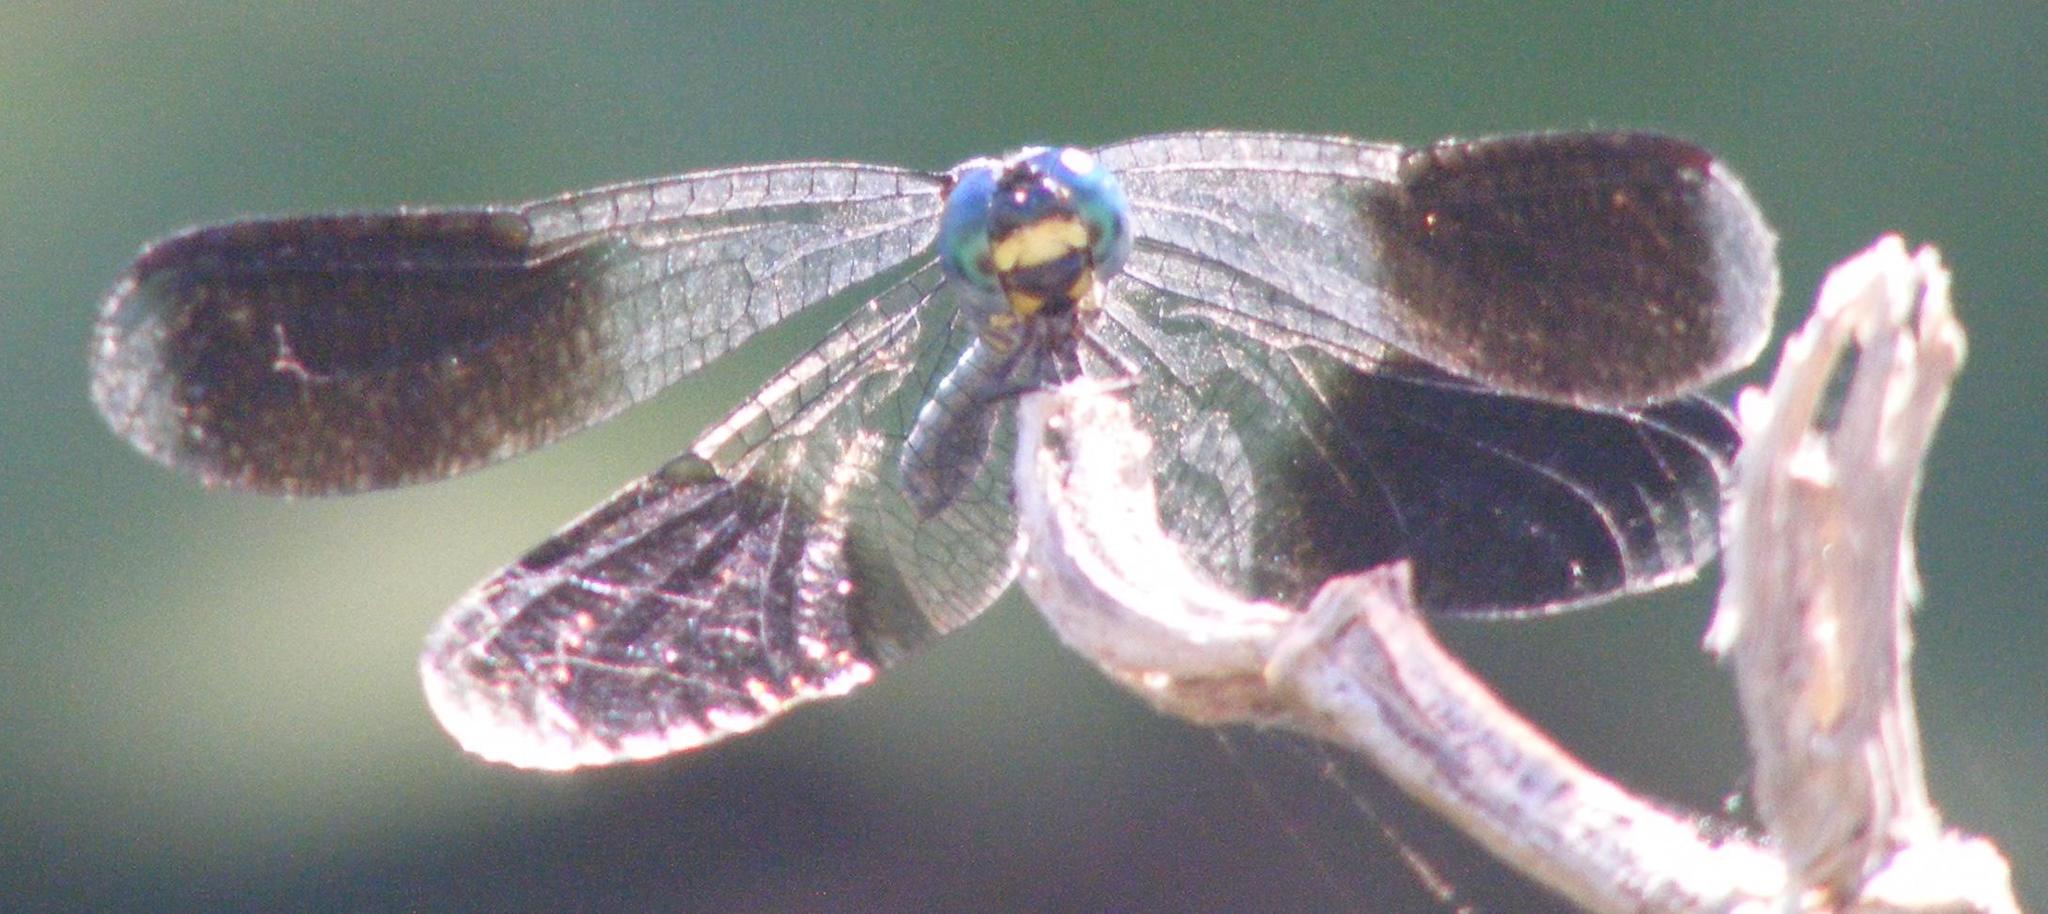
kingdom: Animalia
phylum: Arthropoda
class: Insecta
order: Odonata
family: Libellulidae
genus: Tetrathemis
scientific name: Tetrathemis polleni
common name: Black-splashed elf
